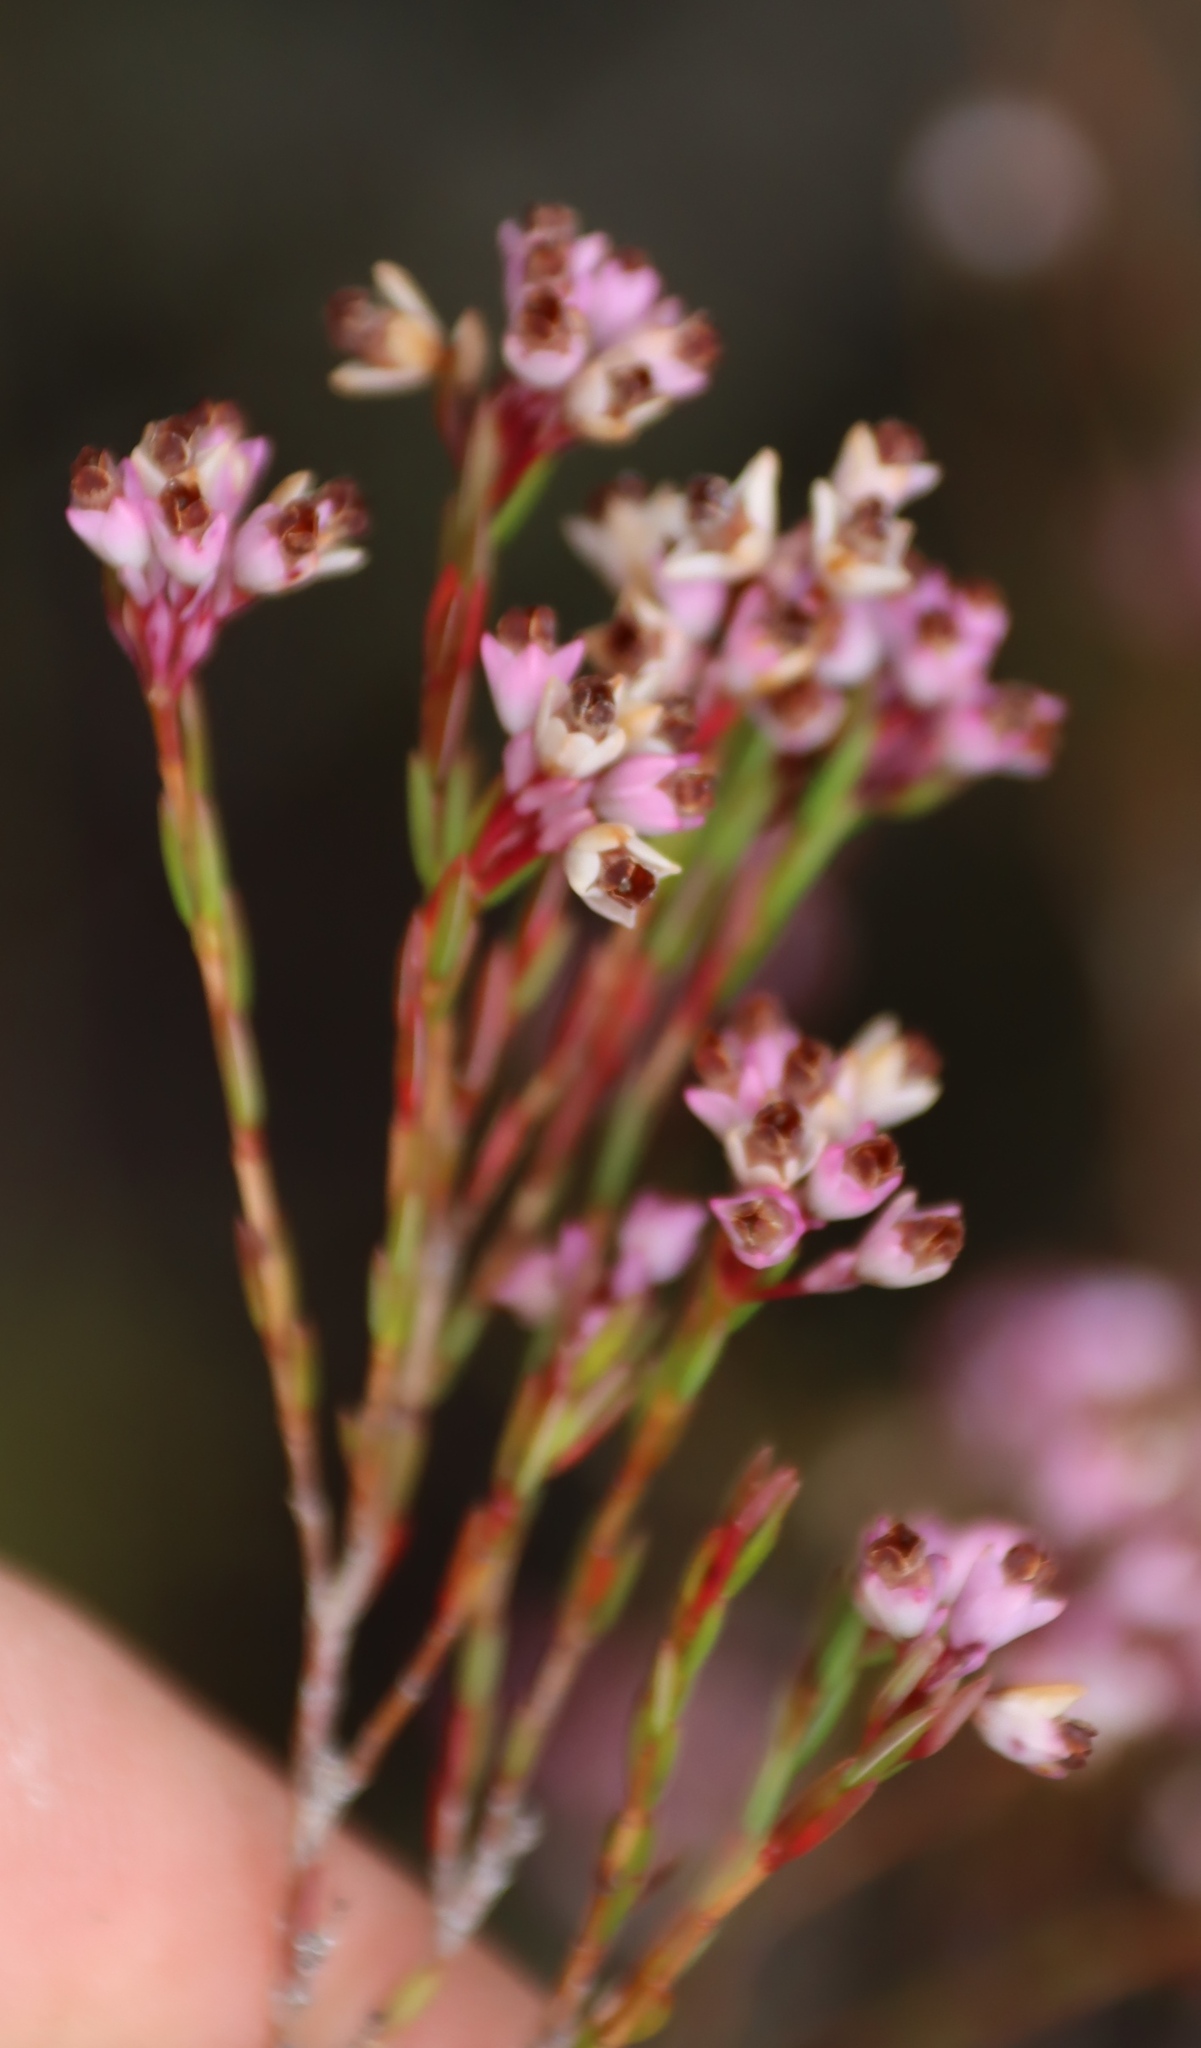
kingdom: Plantae
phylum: Tracheophyta
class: Magnoliopsida
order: Ericales
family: Ericaceae
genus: Erica
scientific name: Erica corifolia
